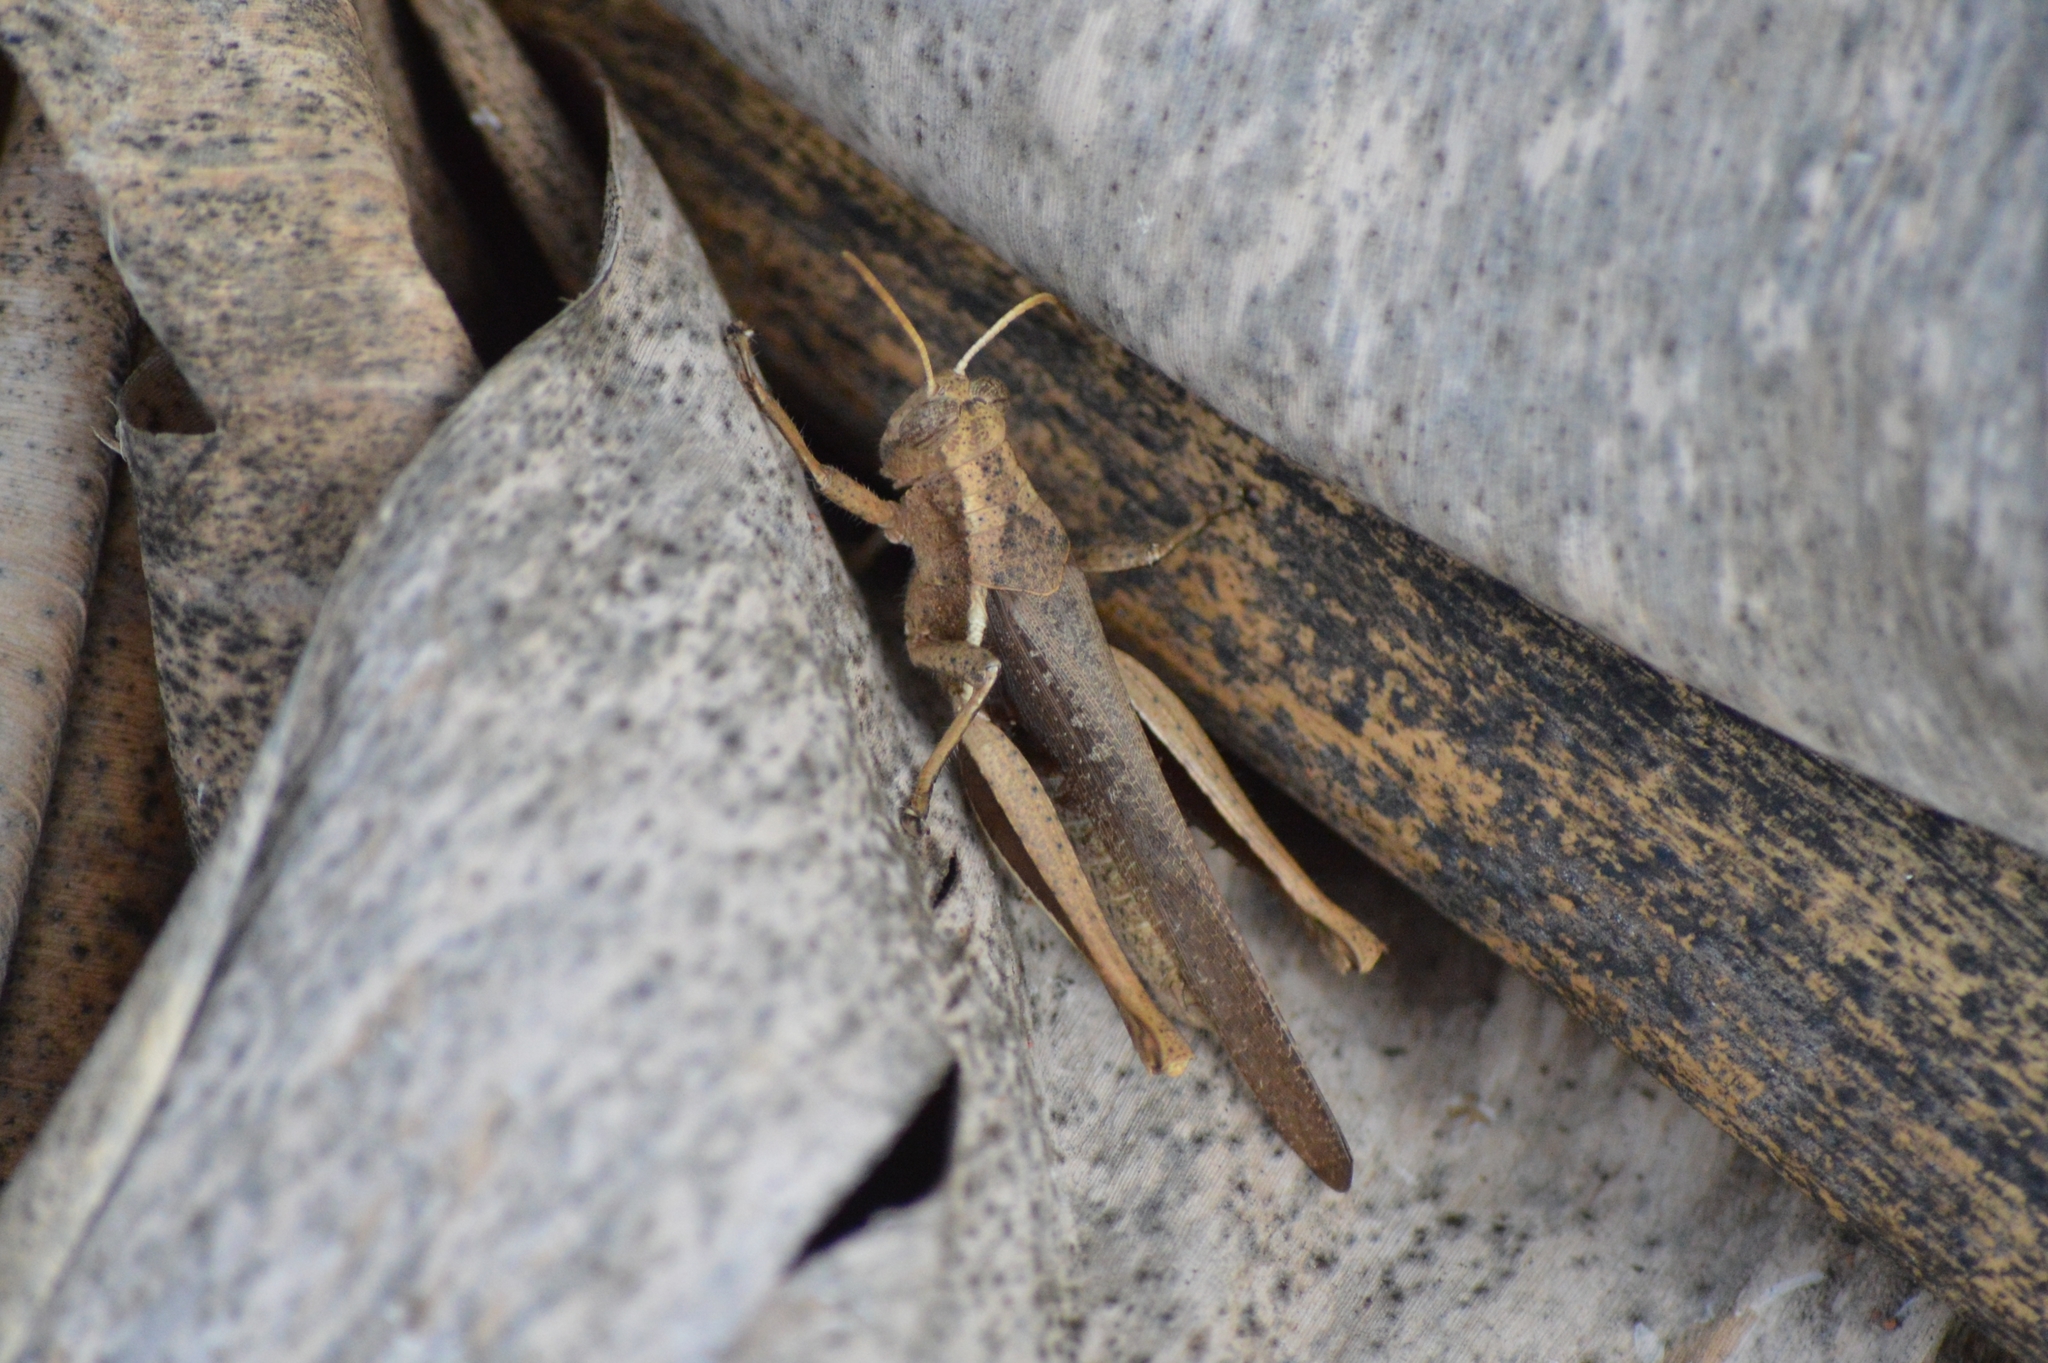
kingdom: Animalia
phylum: Arthropoda
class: Insecta
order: Orthoptera
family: Acrididae
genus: Abracris
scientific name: Abracris flavolineata
